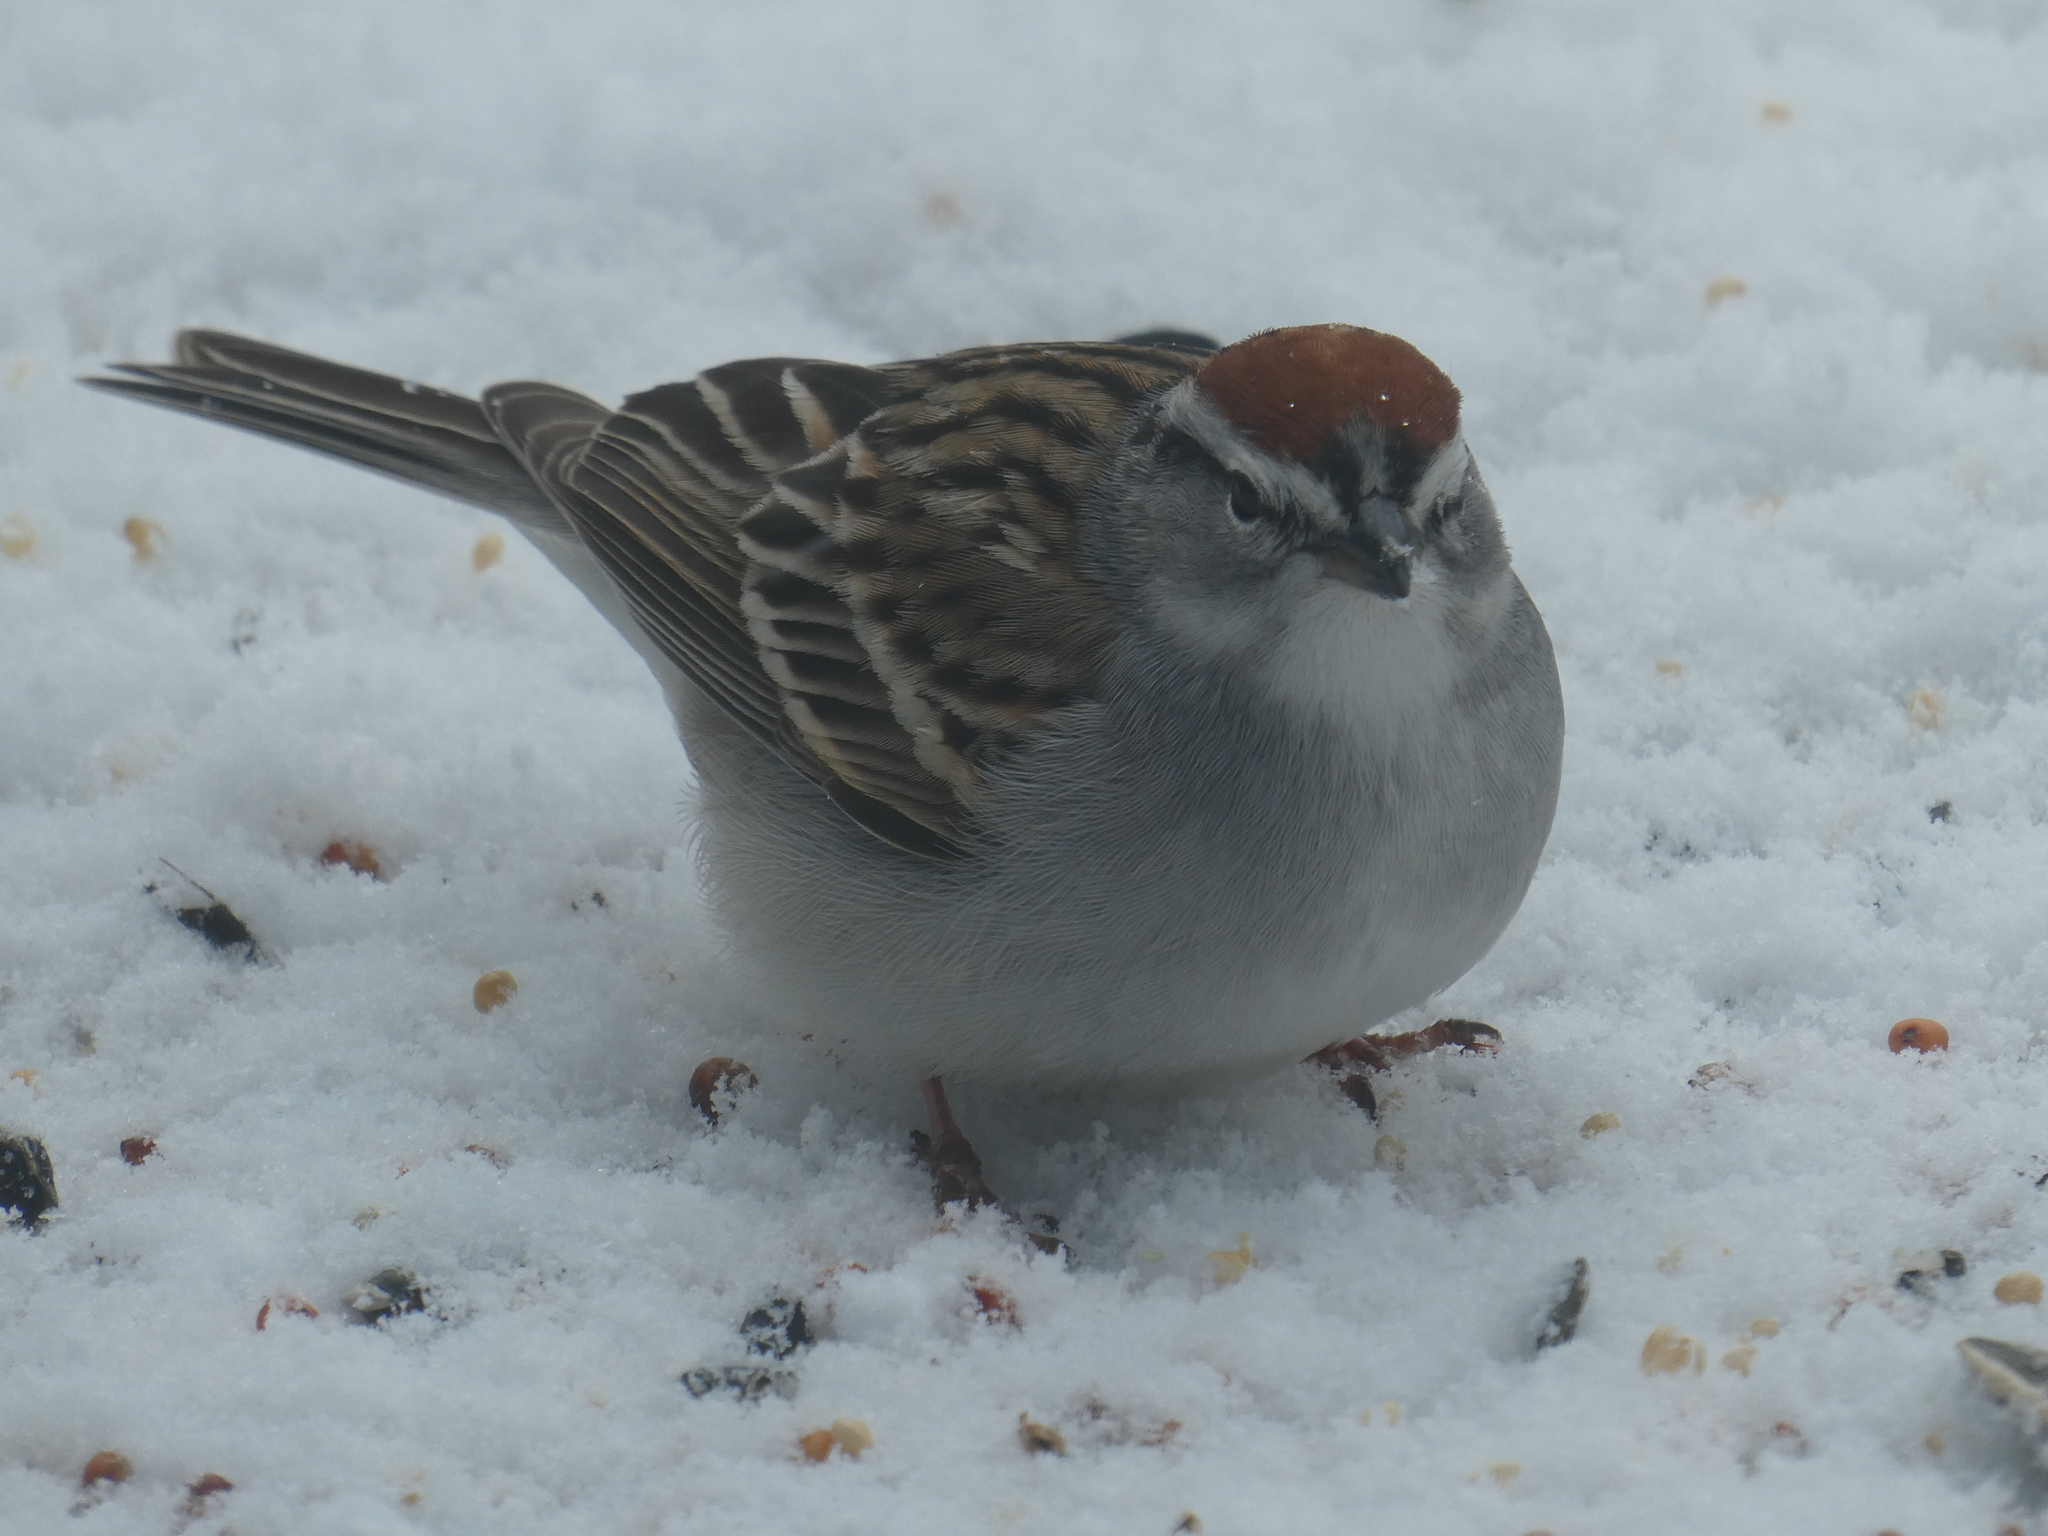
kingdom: Animalia
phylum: Chordata
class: Aves
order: Passeriformes
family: Passerellidae
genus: Spizella
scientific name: Spizella passerina
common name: Chipping sparrow
